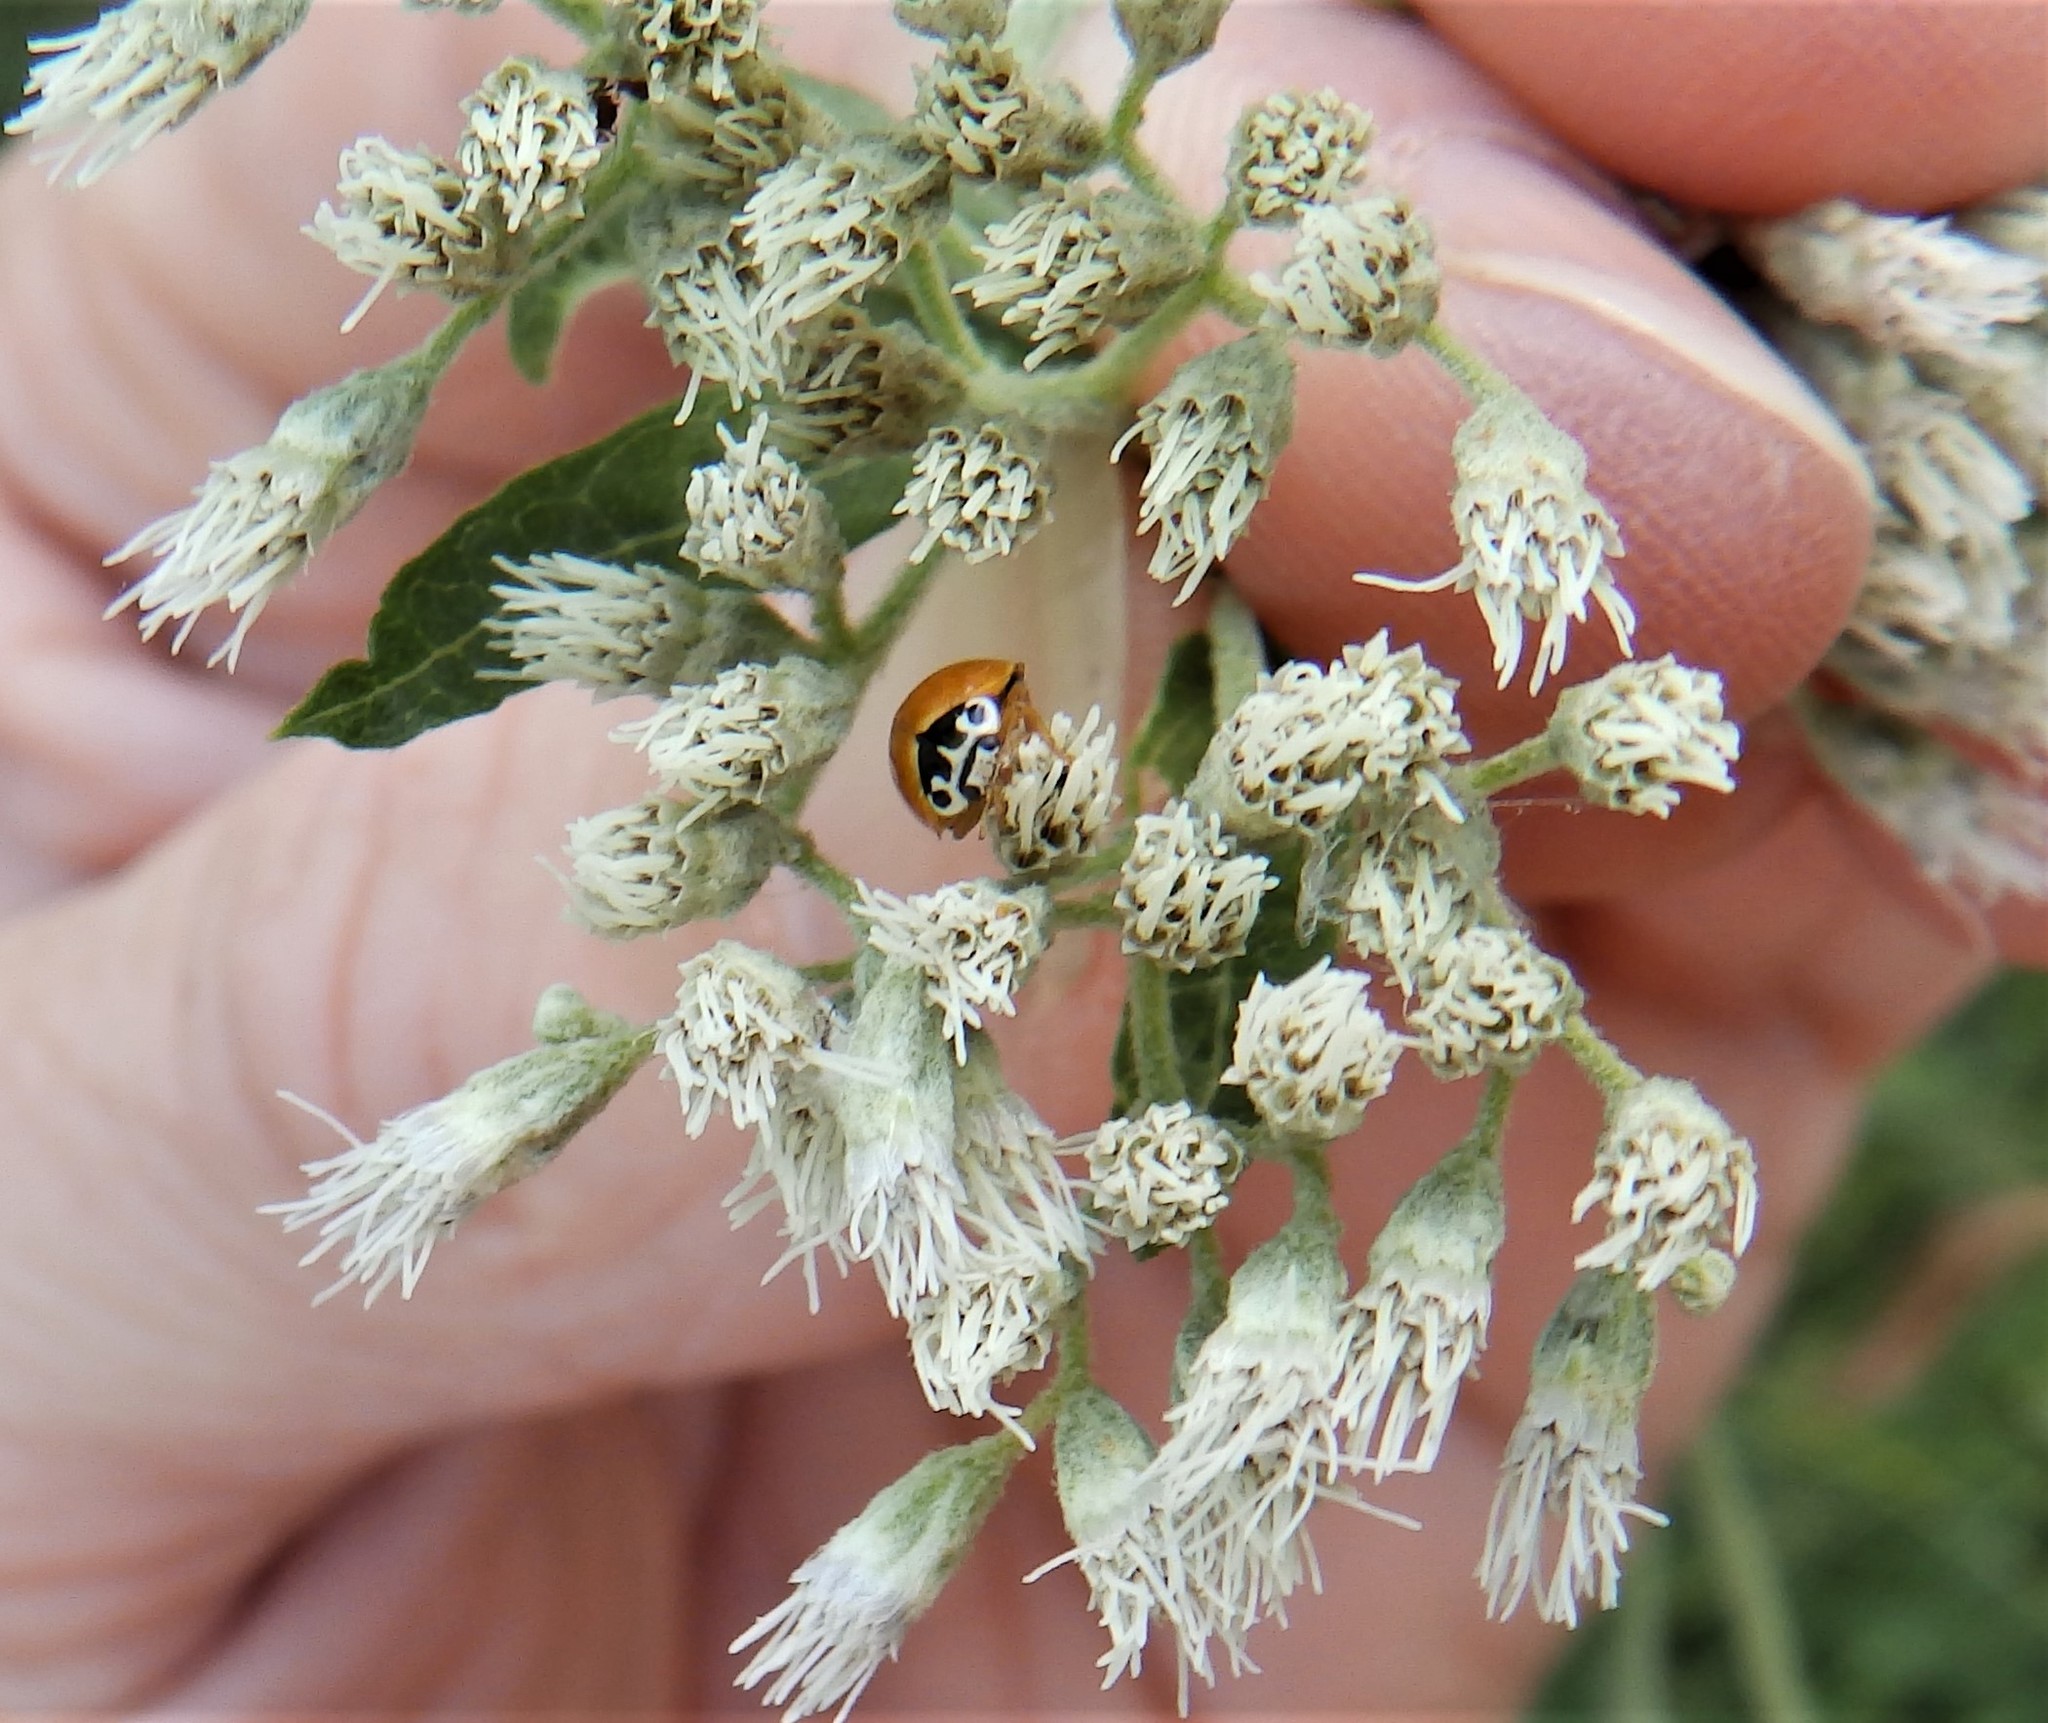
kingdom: Animalia
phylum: Arthropoda
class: Insecta
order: Coleoptera
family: Coccinellidae
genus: Cycloneda
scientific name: Cycloneda munda
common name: Polished lady beetle
